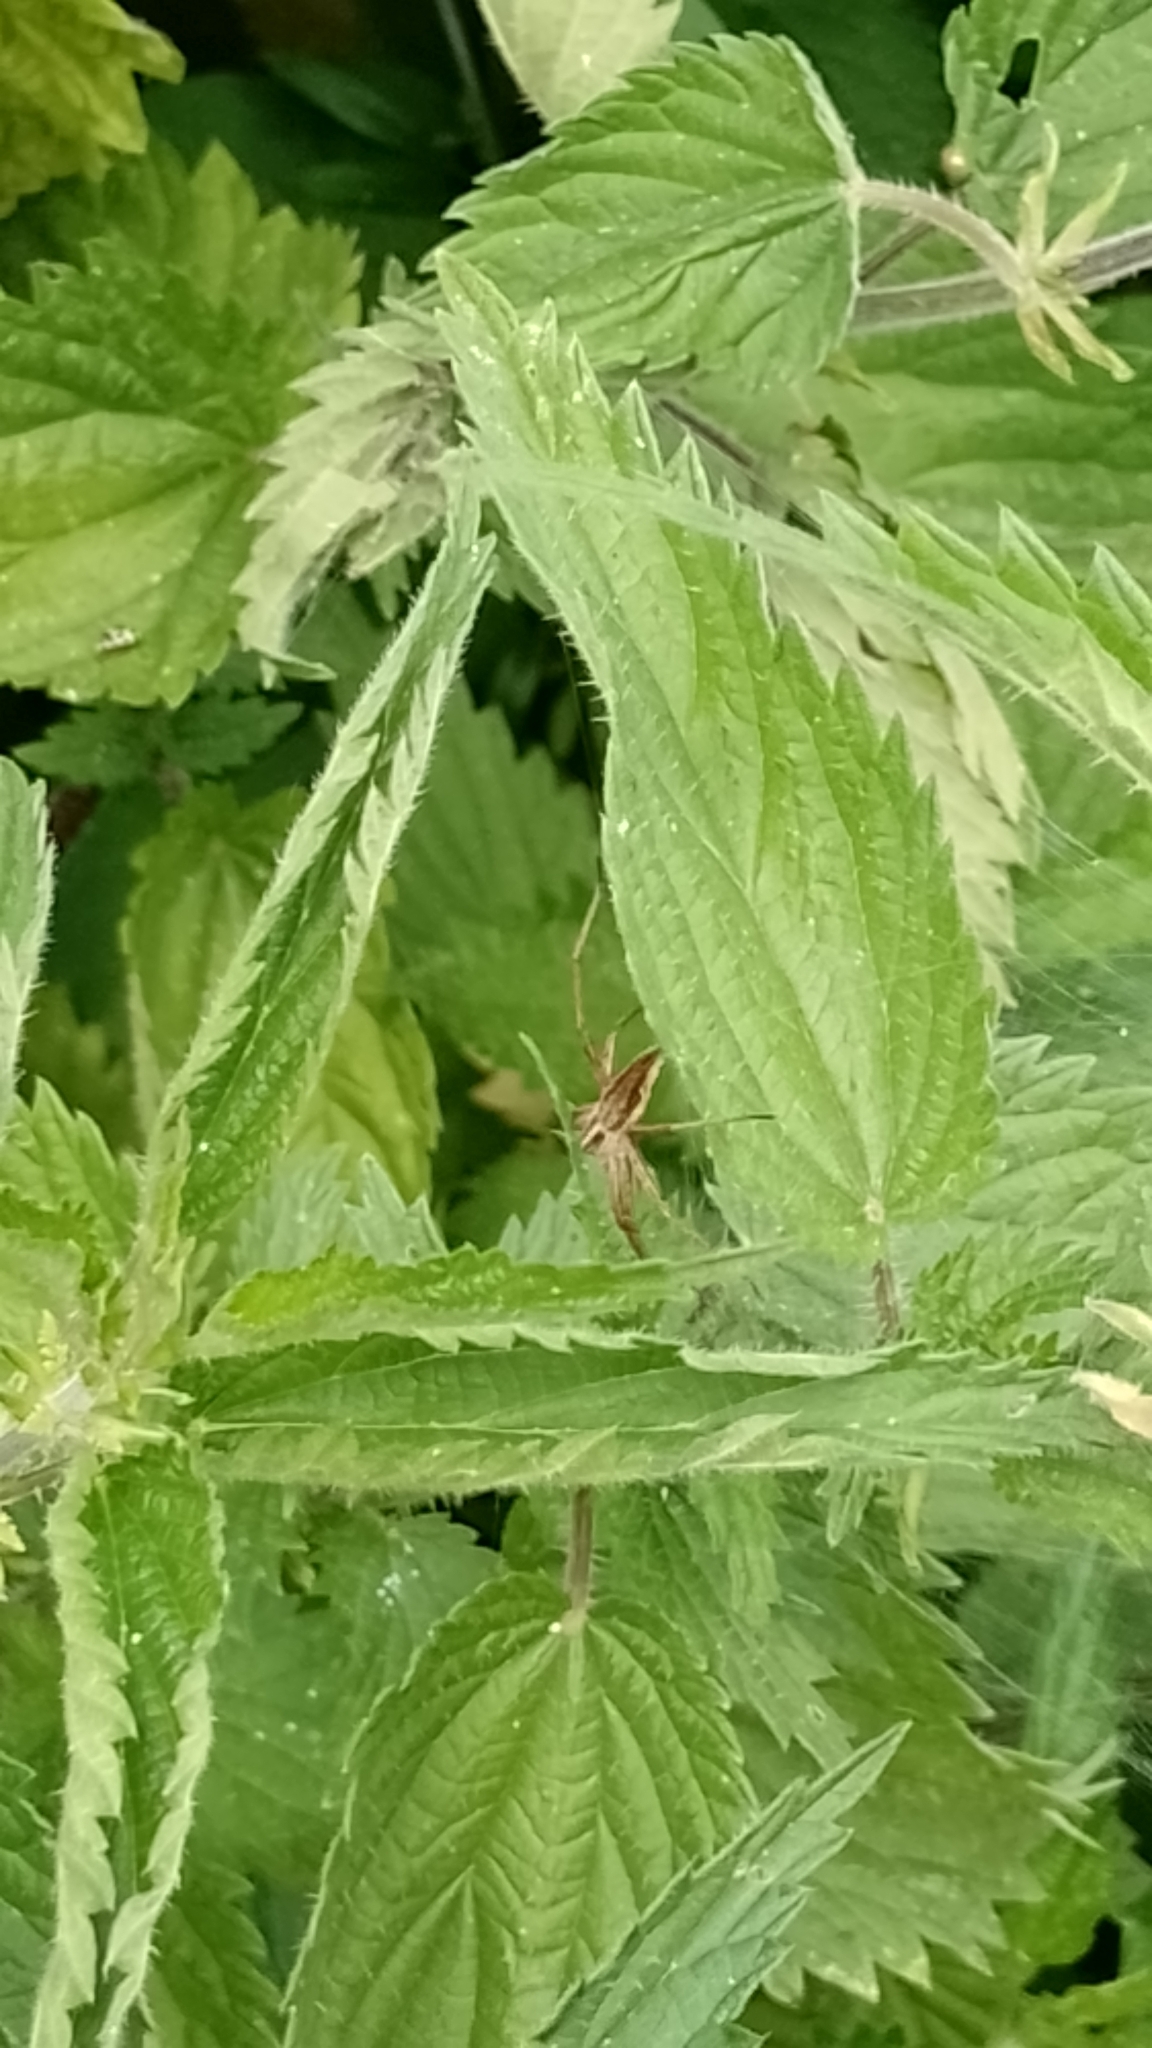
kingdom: Animalia
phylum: Arthropoda
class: Arachnida
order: Araneae
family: Pisauridae
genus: Pisaura
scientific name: Pisaura mirabilis
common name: Tent spider
